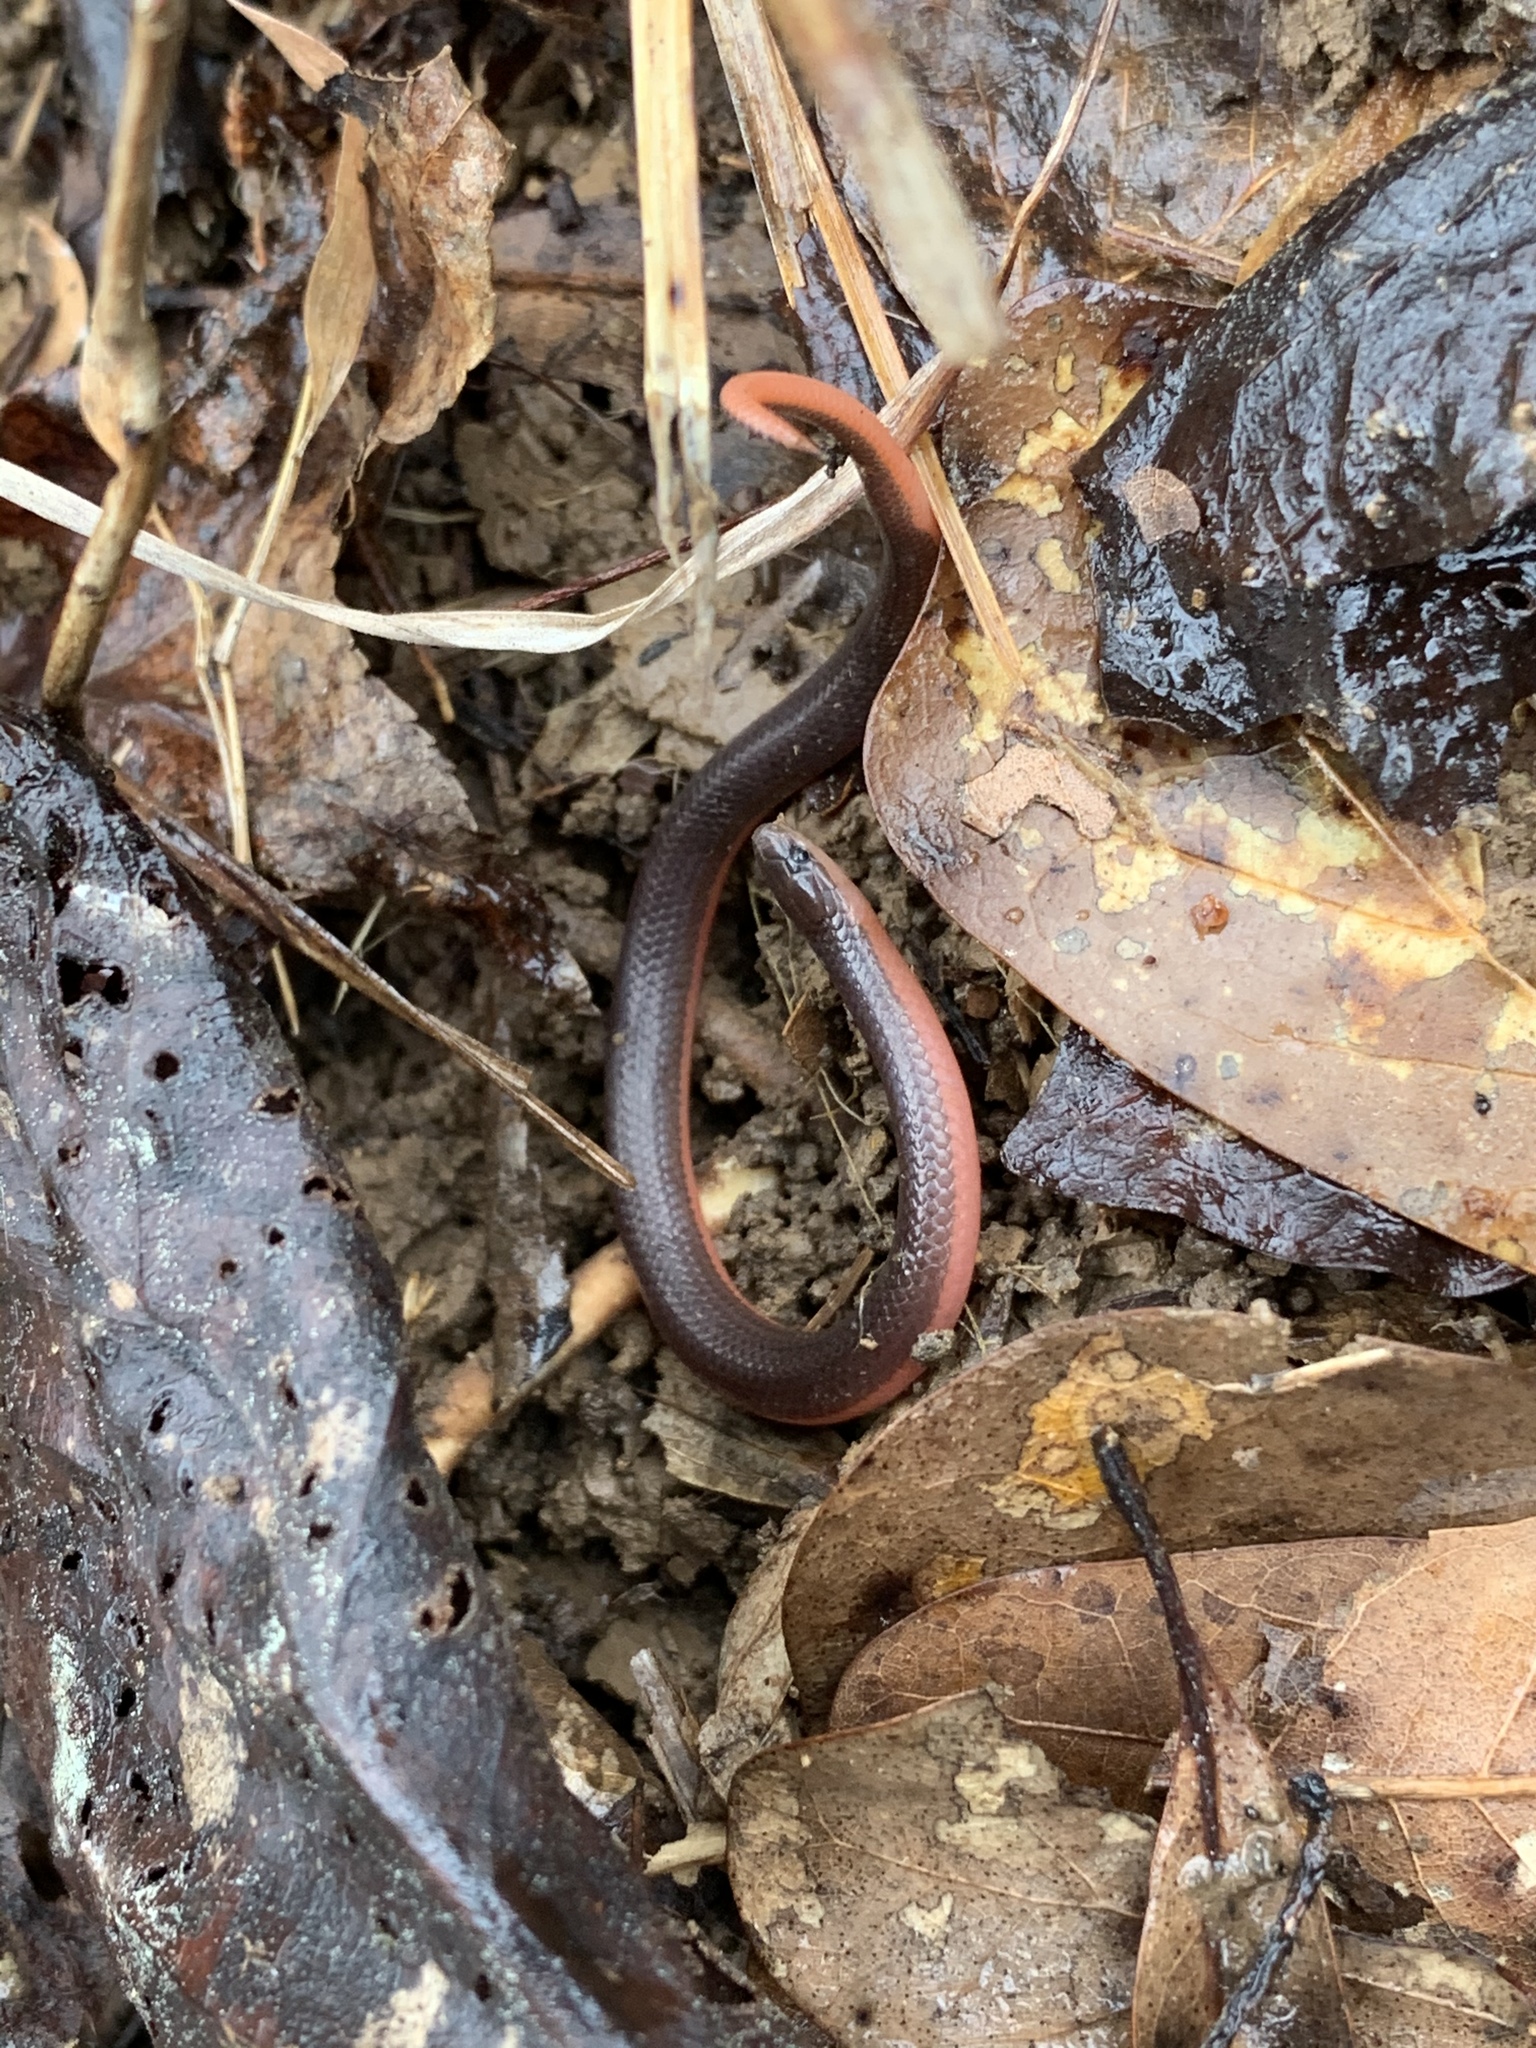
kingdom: Animalia
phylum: Chordata
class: Squamata
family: Colubridae
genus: Carphophis
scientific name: Carphophis amoenus
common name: Eastern worm snake
